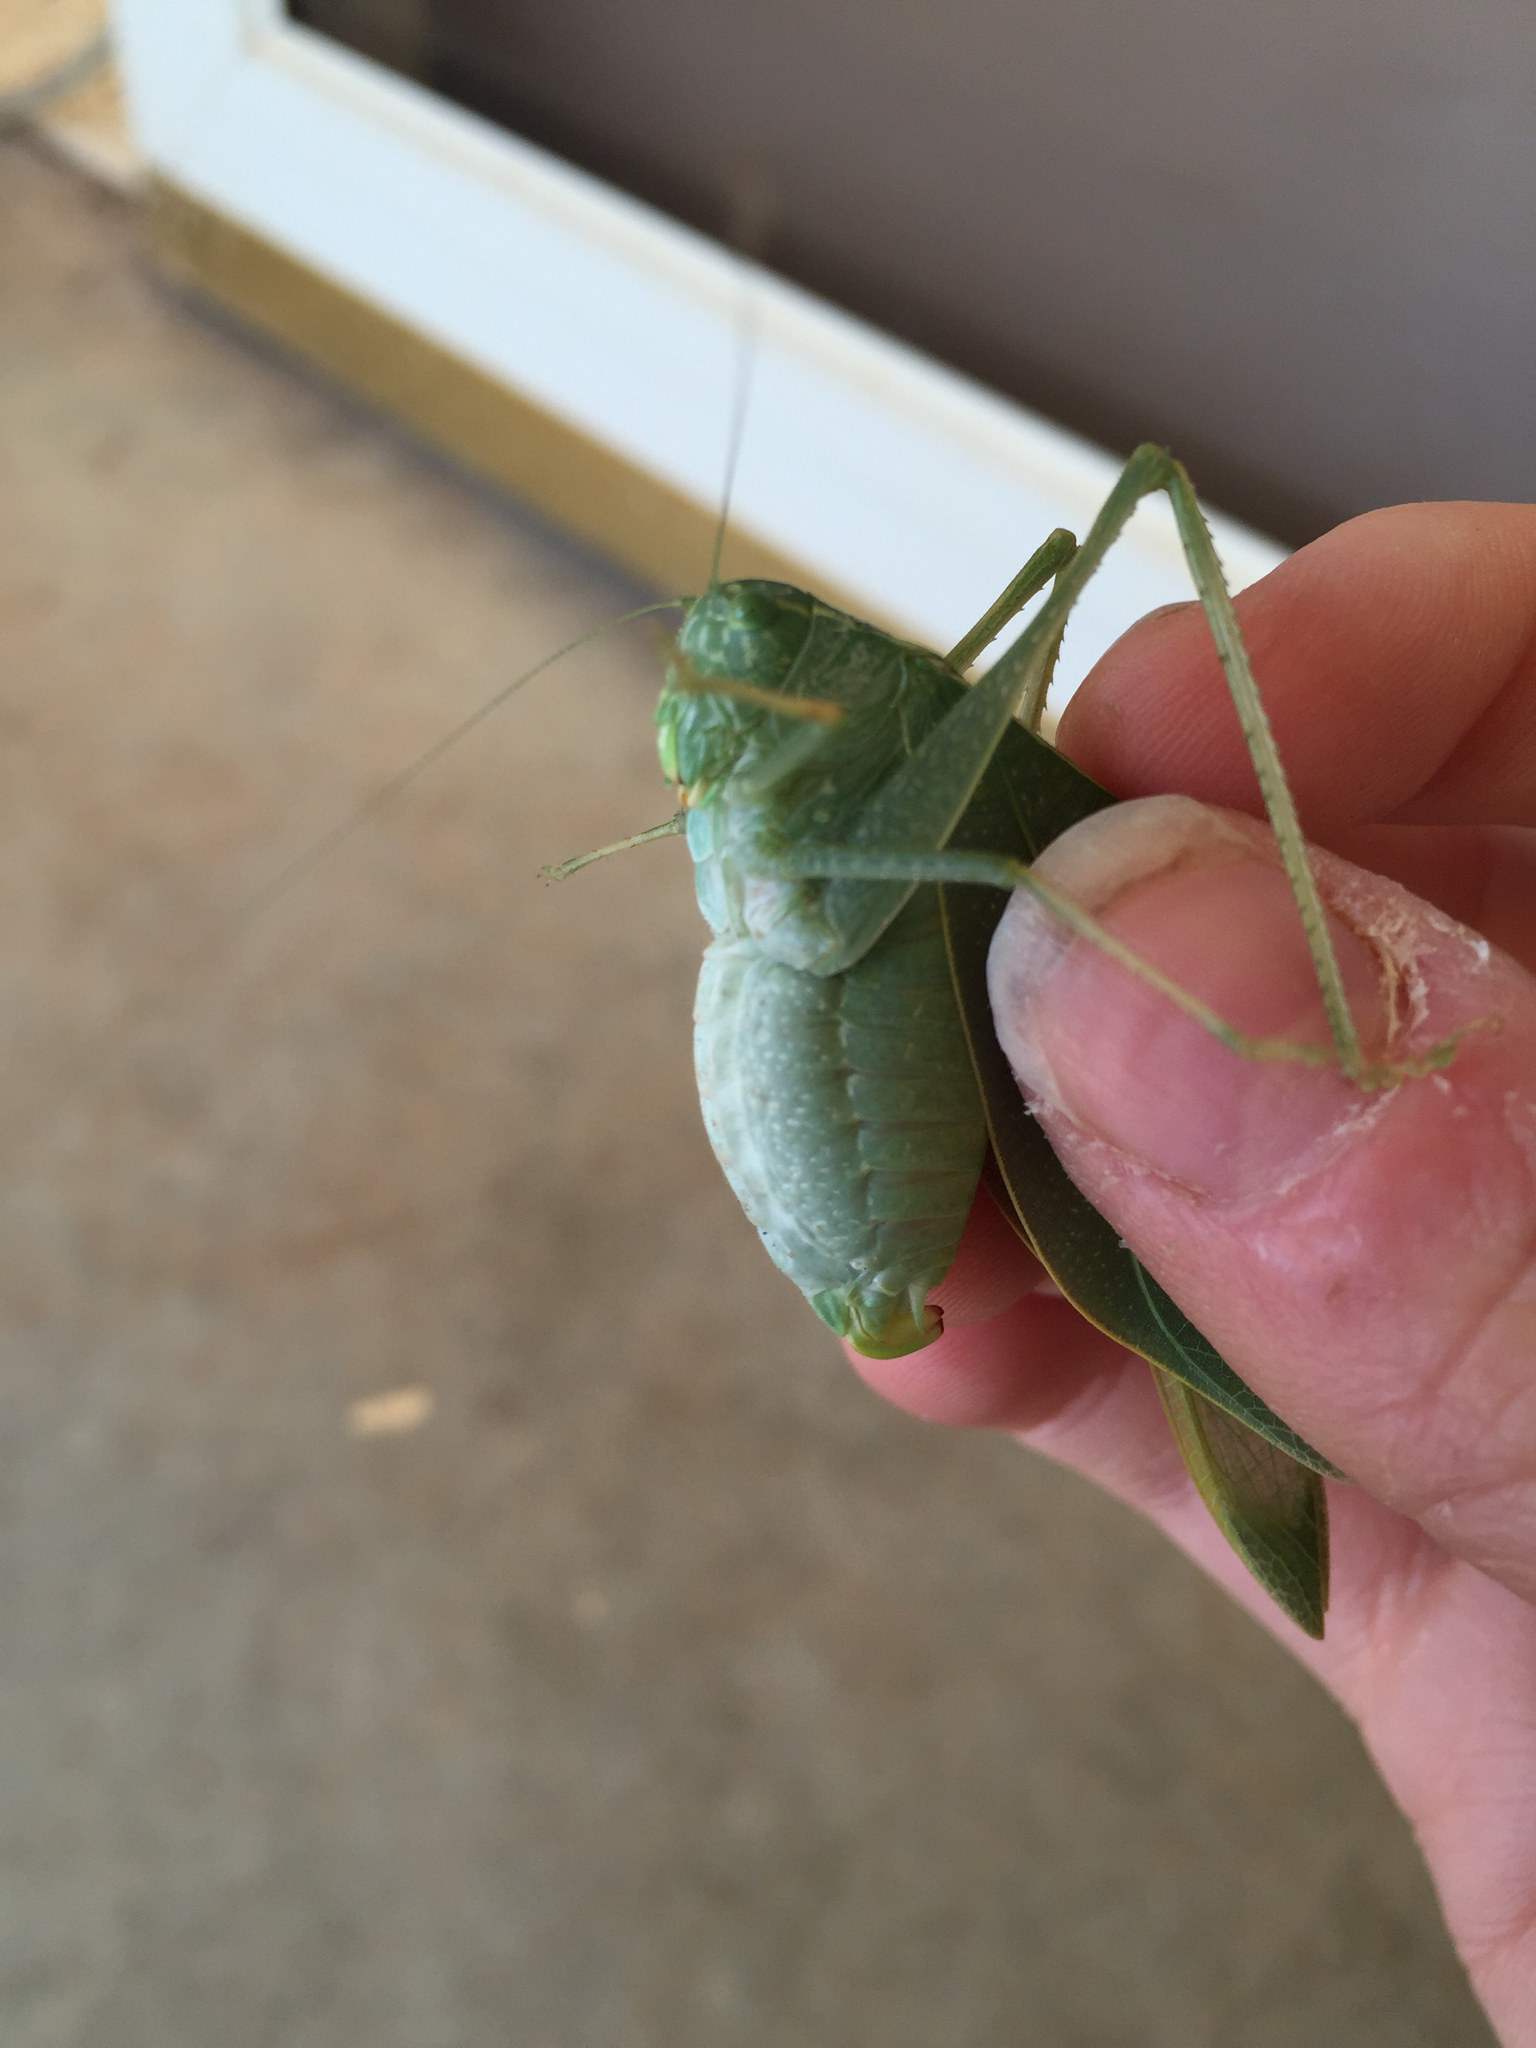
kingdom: Animalia
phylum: Arthropoda
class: Insecta
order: Orthoptera
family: Tettigoniidae
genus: Microcentrum
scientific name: Microcentrum rhombifolium
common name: Broad-winged katydid
